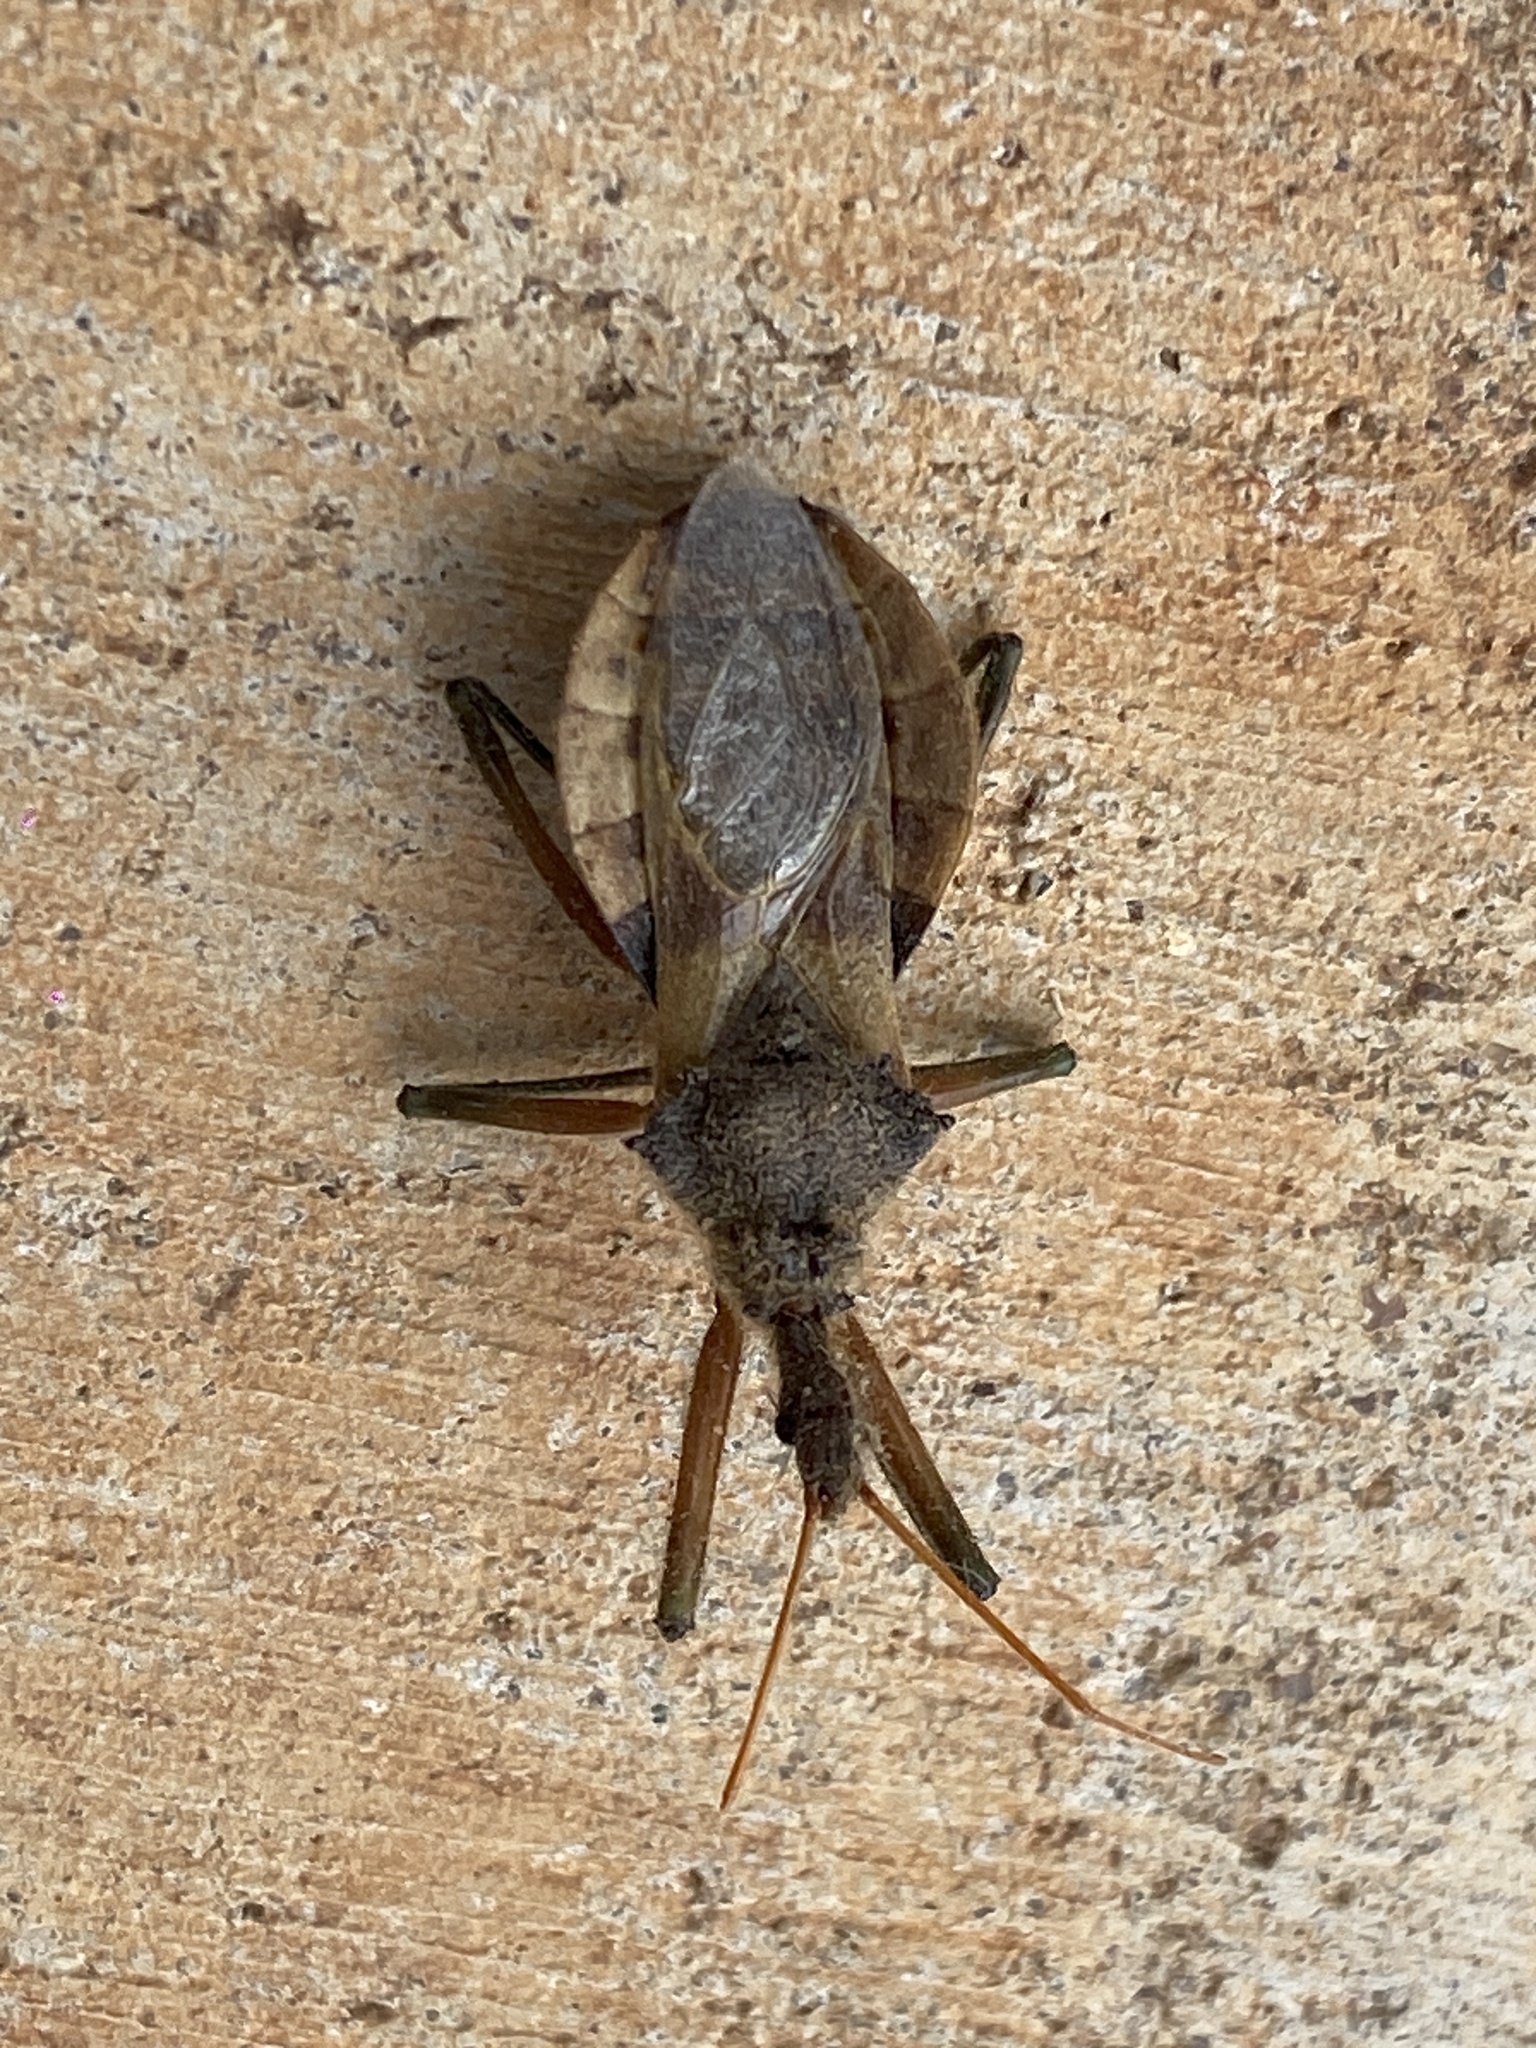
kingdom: Animalia
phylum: Arthropoda
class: Insecta
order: Hemiptera
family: Reduviidae
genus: Pristhesancus
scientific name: Pristhesancus plagipennis
